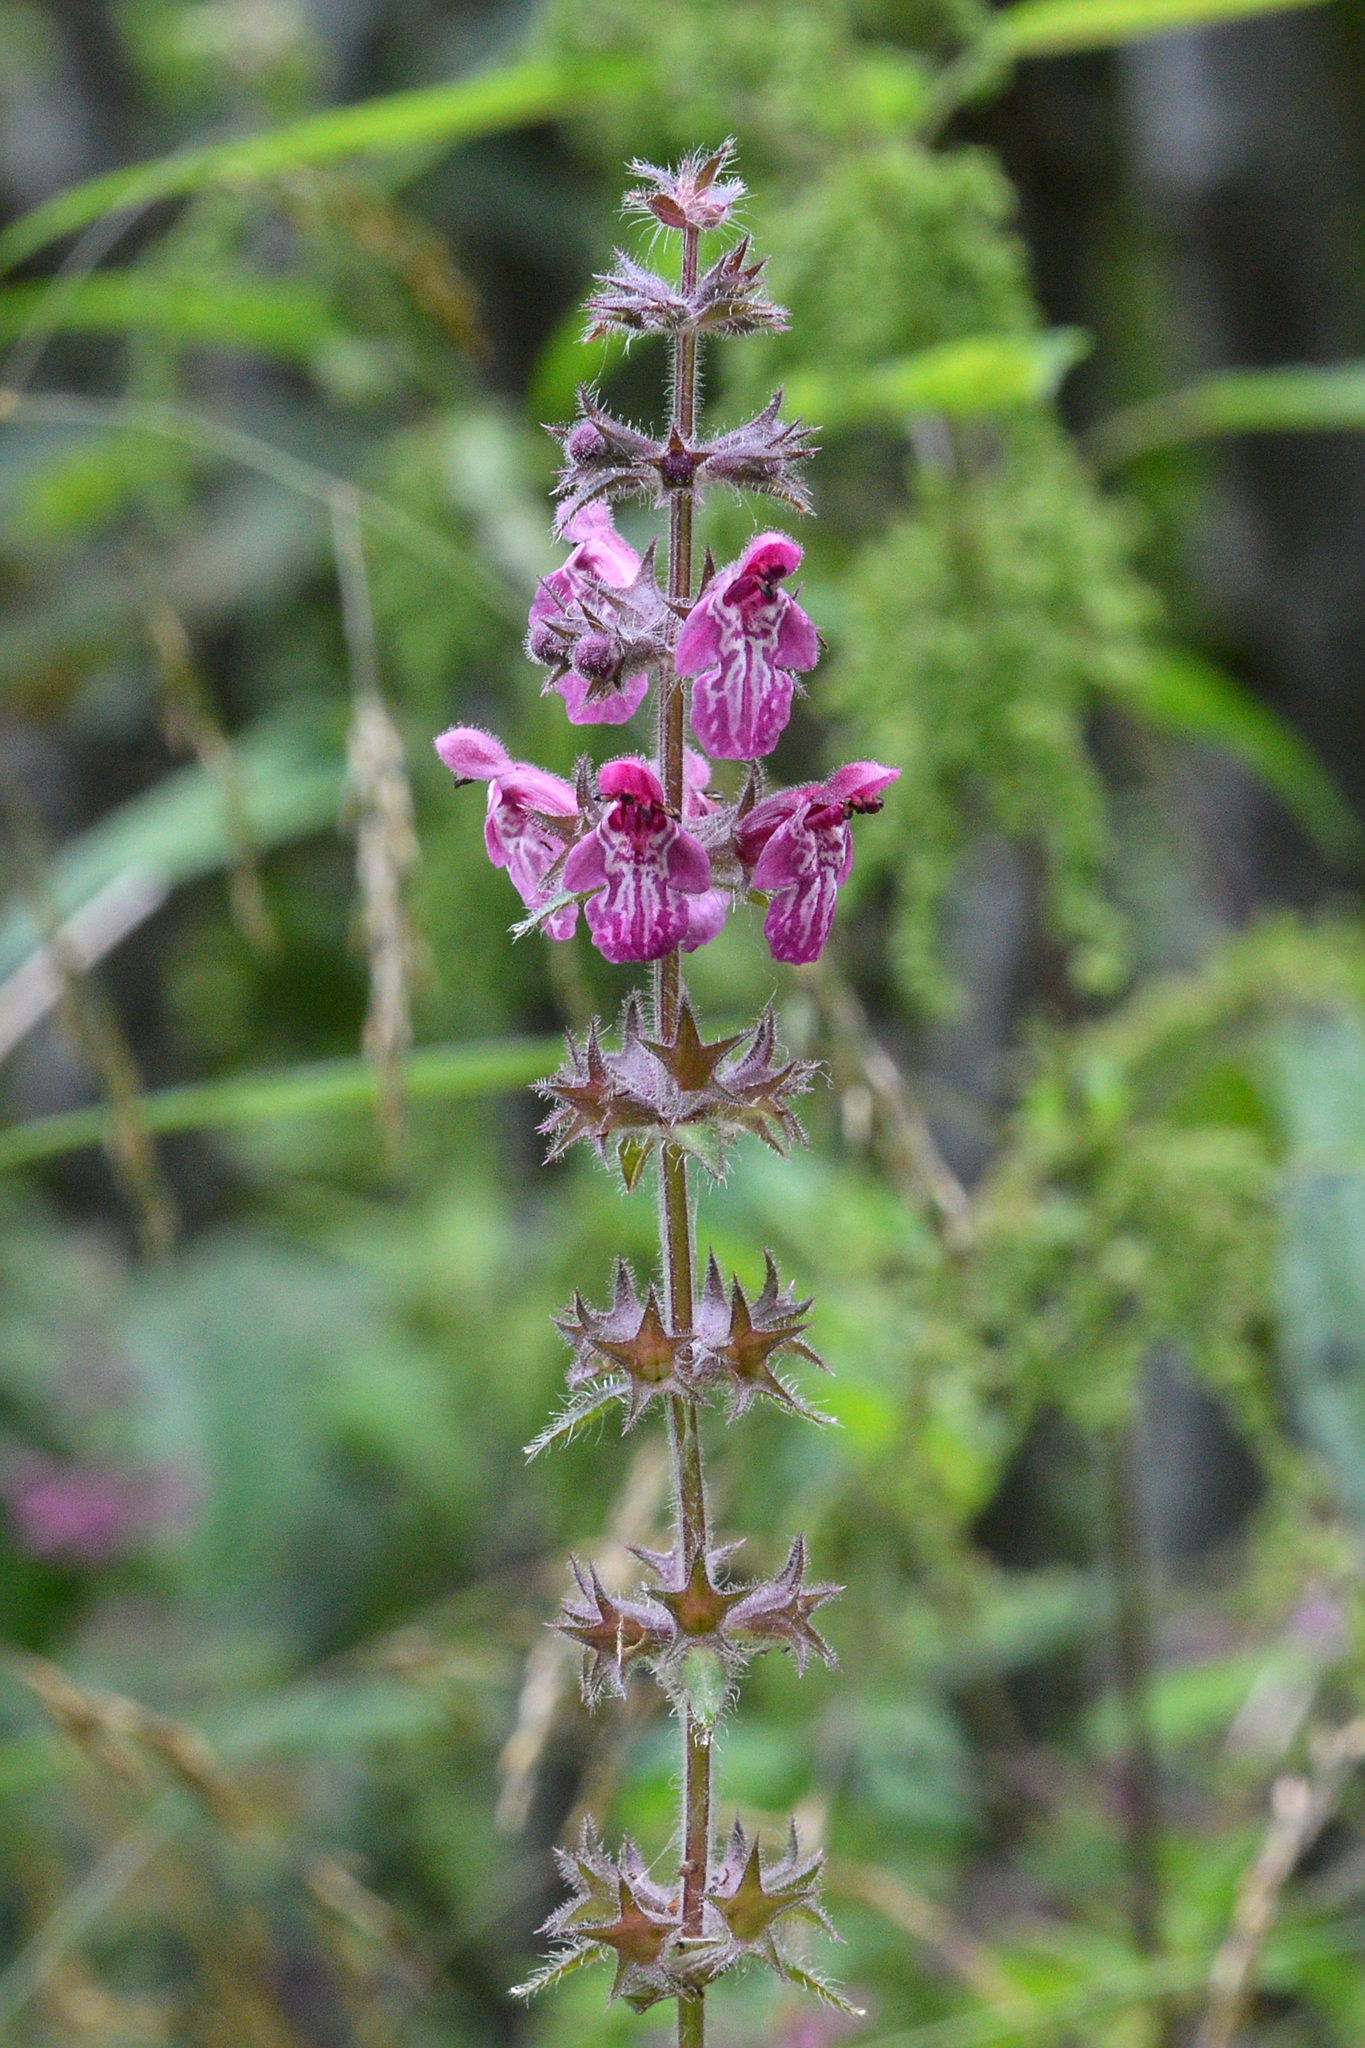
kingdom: Plantae
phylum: Tracheophyta
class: Magnoliopsida
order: Lamiales
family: Lamiaceae
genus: Stachys
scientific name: Stachys sylvatica
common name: Hedge woundwort
